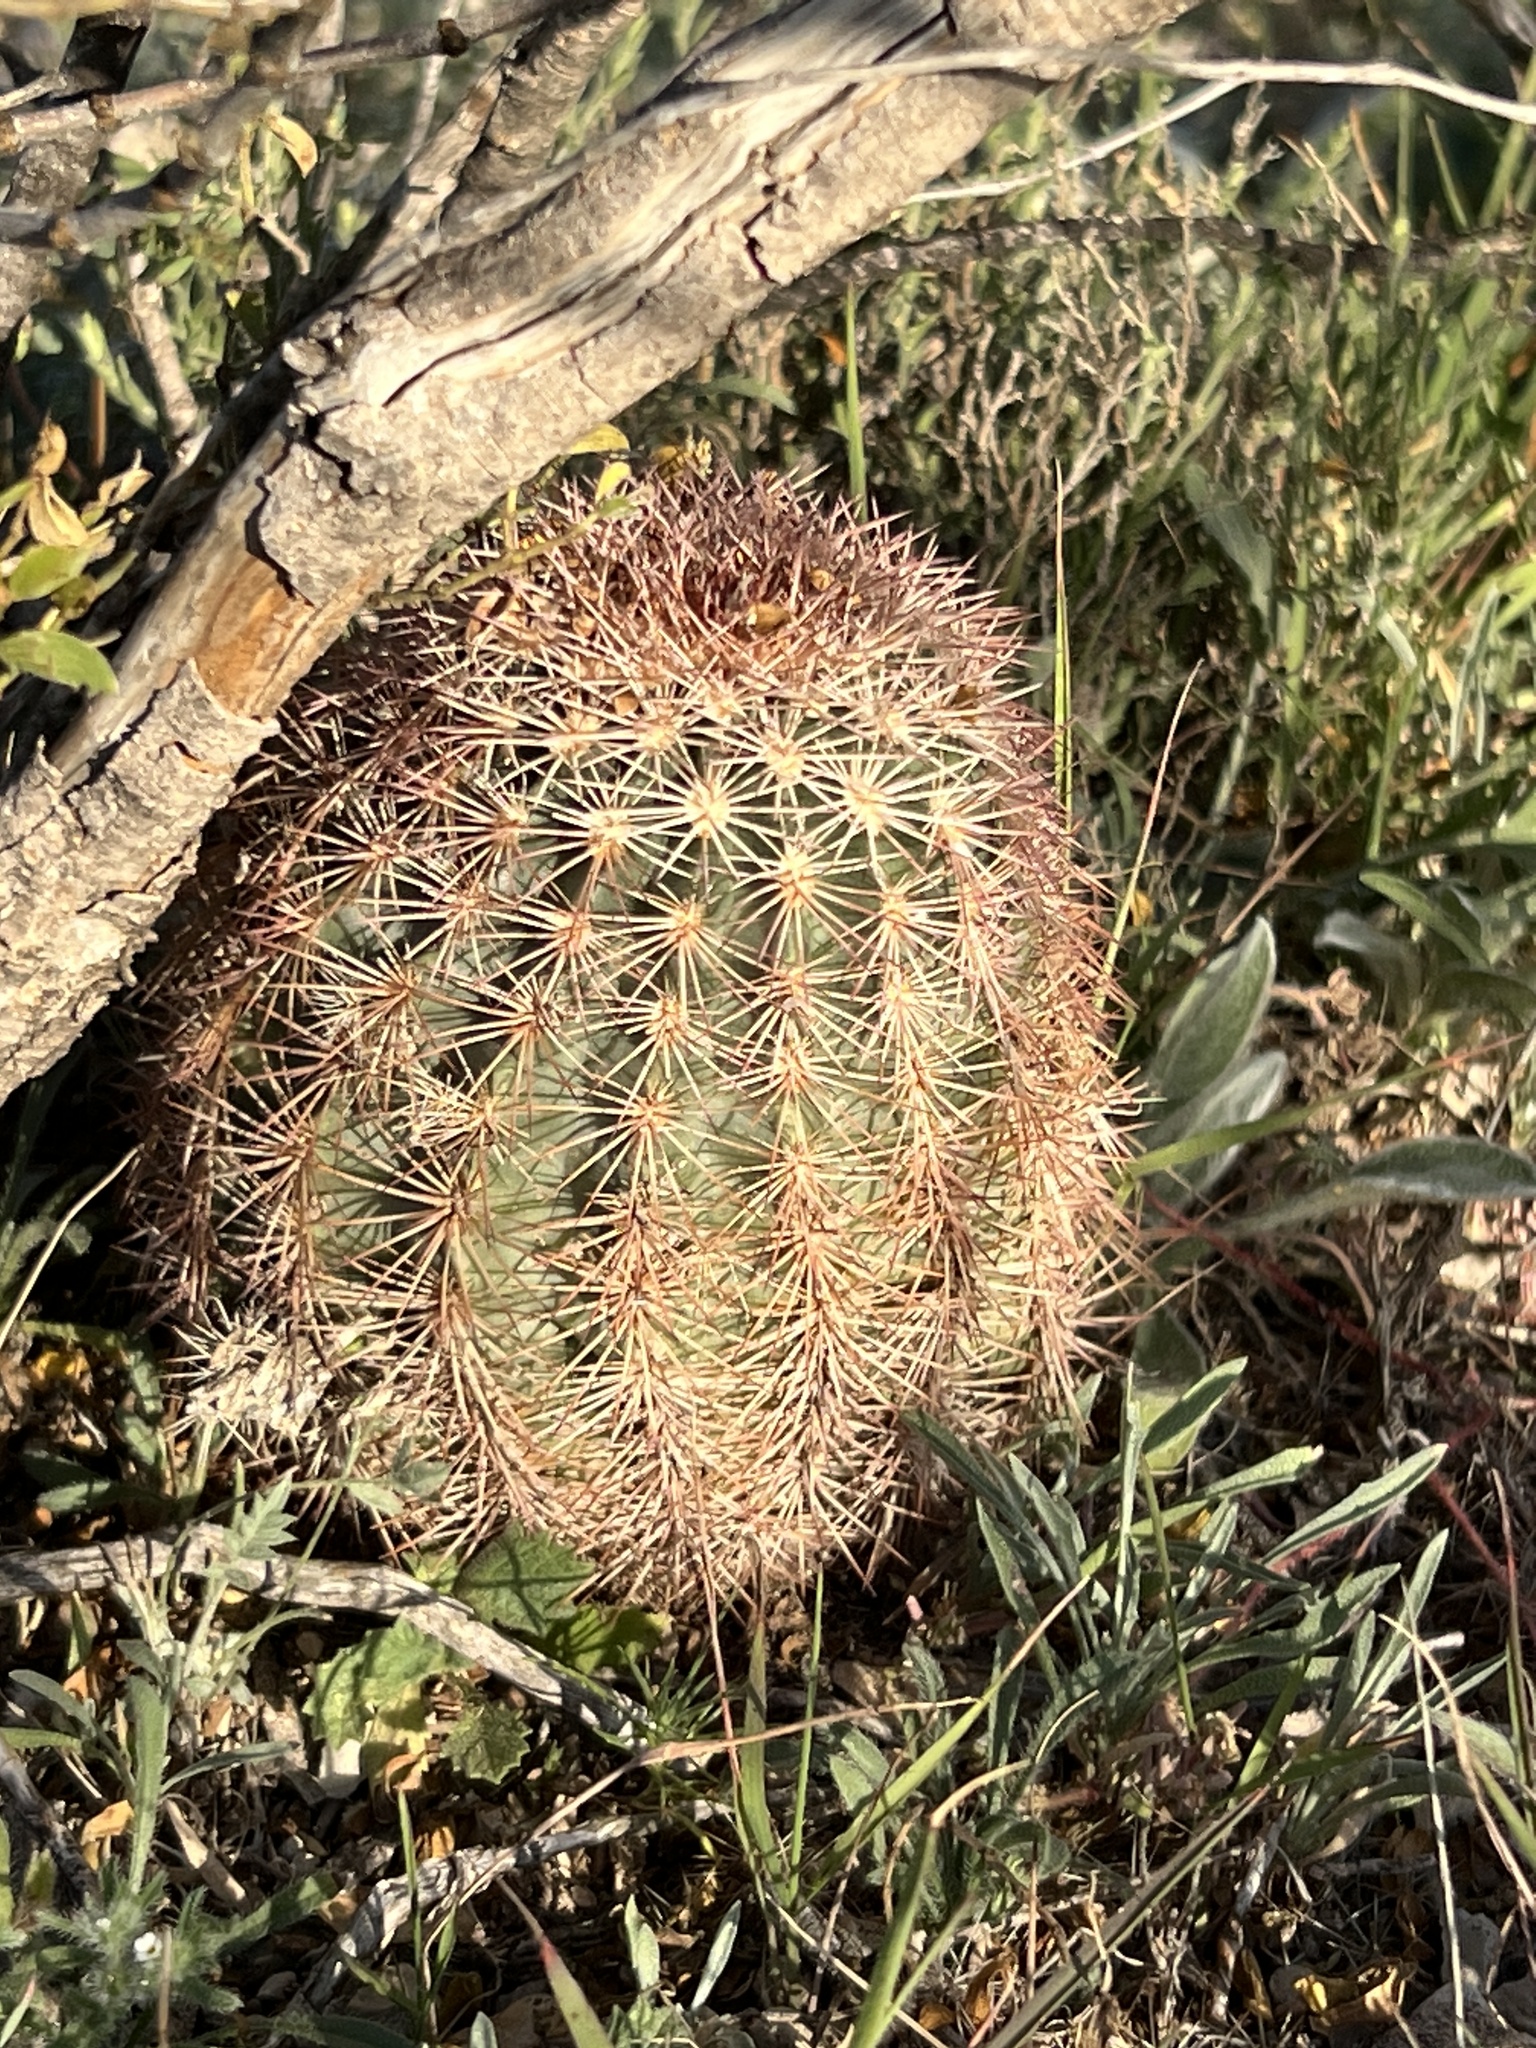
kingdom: Plantae
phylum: Tracheophyta
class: Magnoliopsida
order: Caryophyllales
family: Cactaceae
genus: Echinocereus
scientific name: Echinocereus dasyacanthus
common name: Spiny hedgehog cactus
